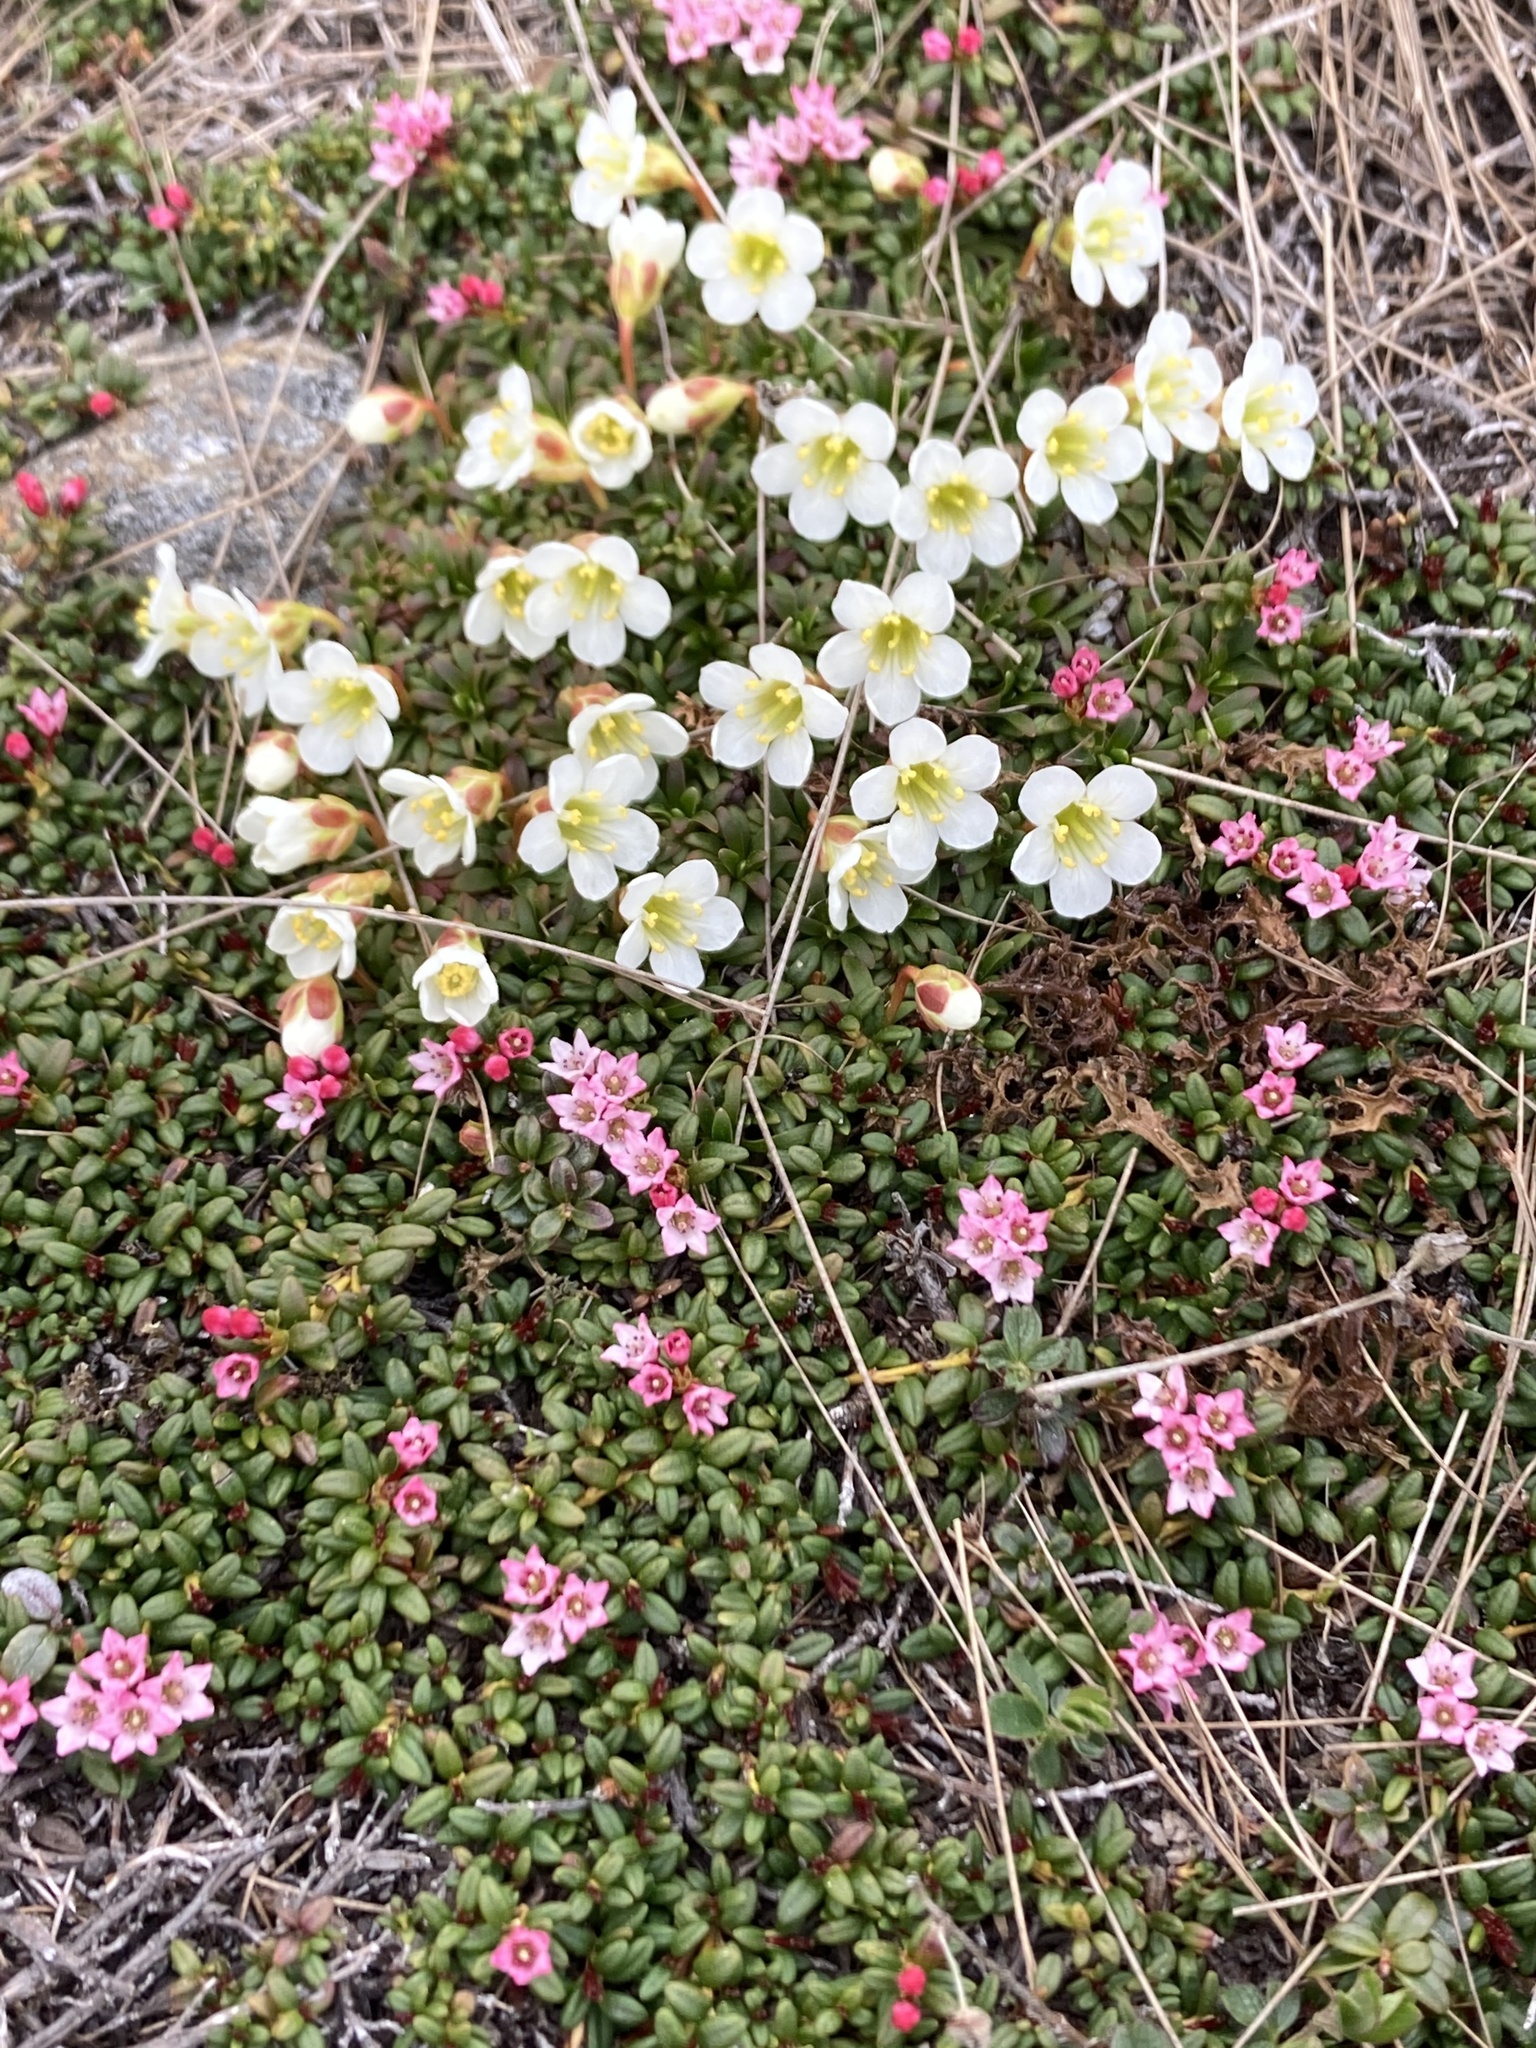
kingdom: Plantae
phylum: Tracheophyta
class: Magnoliopsida
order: Ericales
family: Ericaceae
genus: Kalmia
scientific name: Kalmia procumbens
